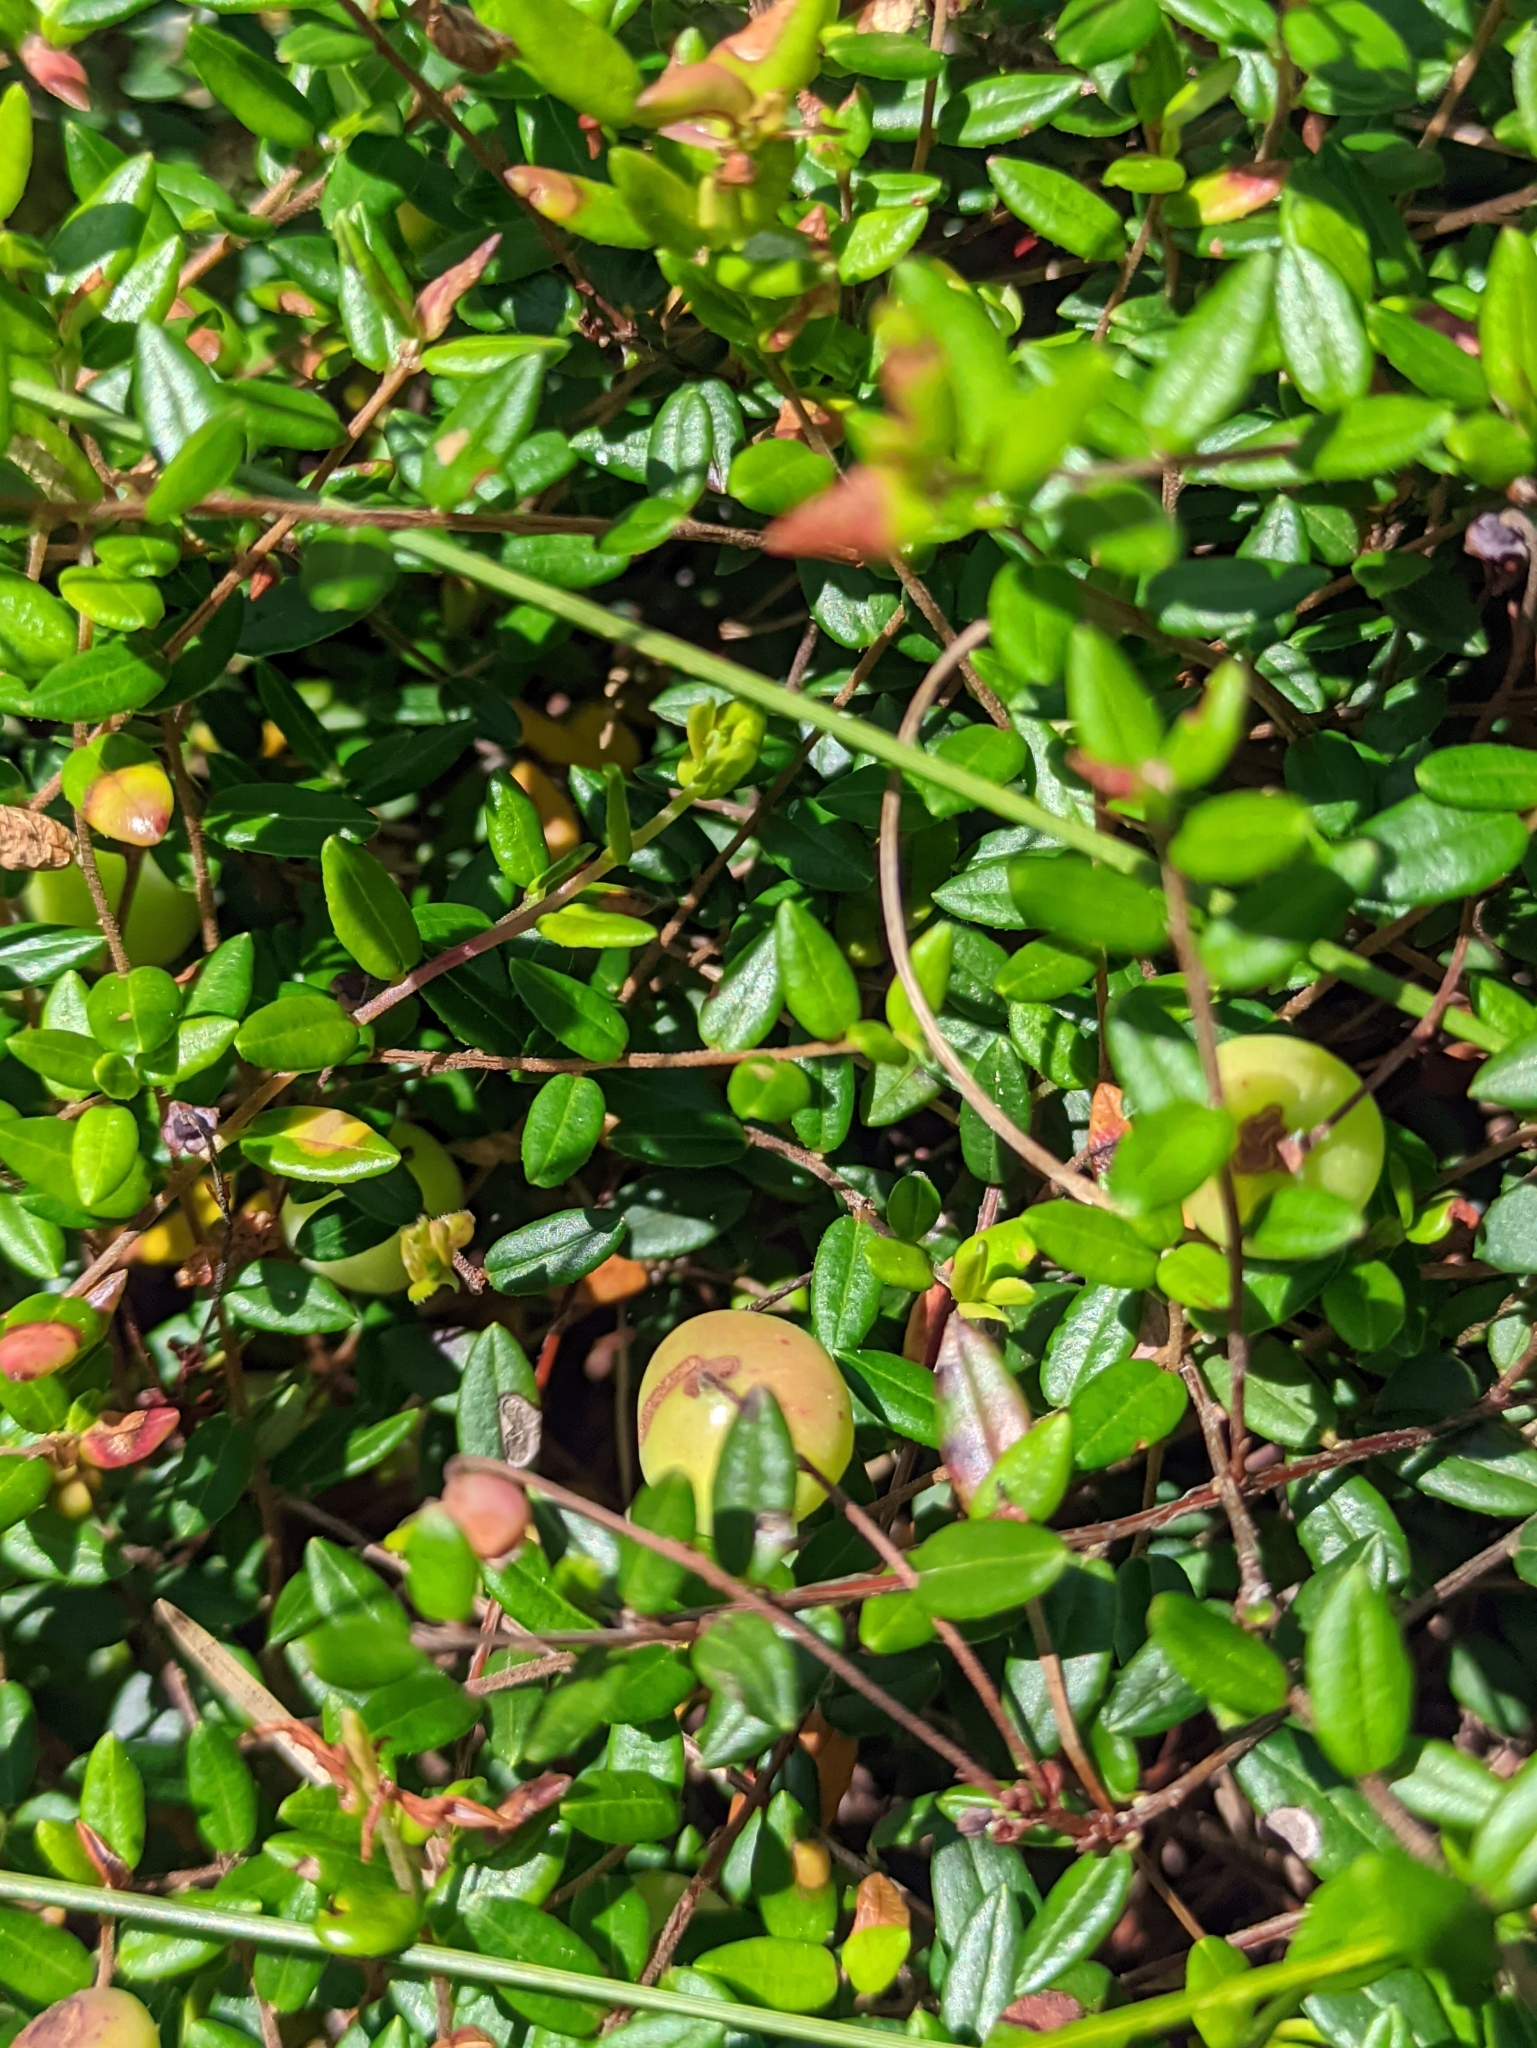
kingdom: Plantae
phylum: Tracheophyta
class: Magnoliopsida
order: Ericales
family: Ericaceae
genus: Vaccinium
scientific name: Vaccinium oxycoccos
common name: Cranberry
